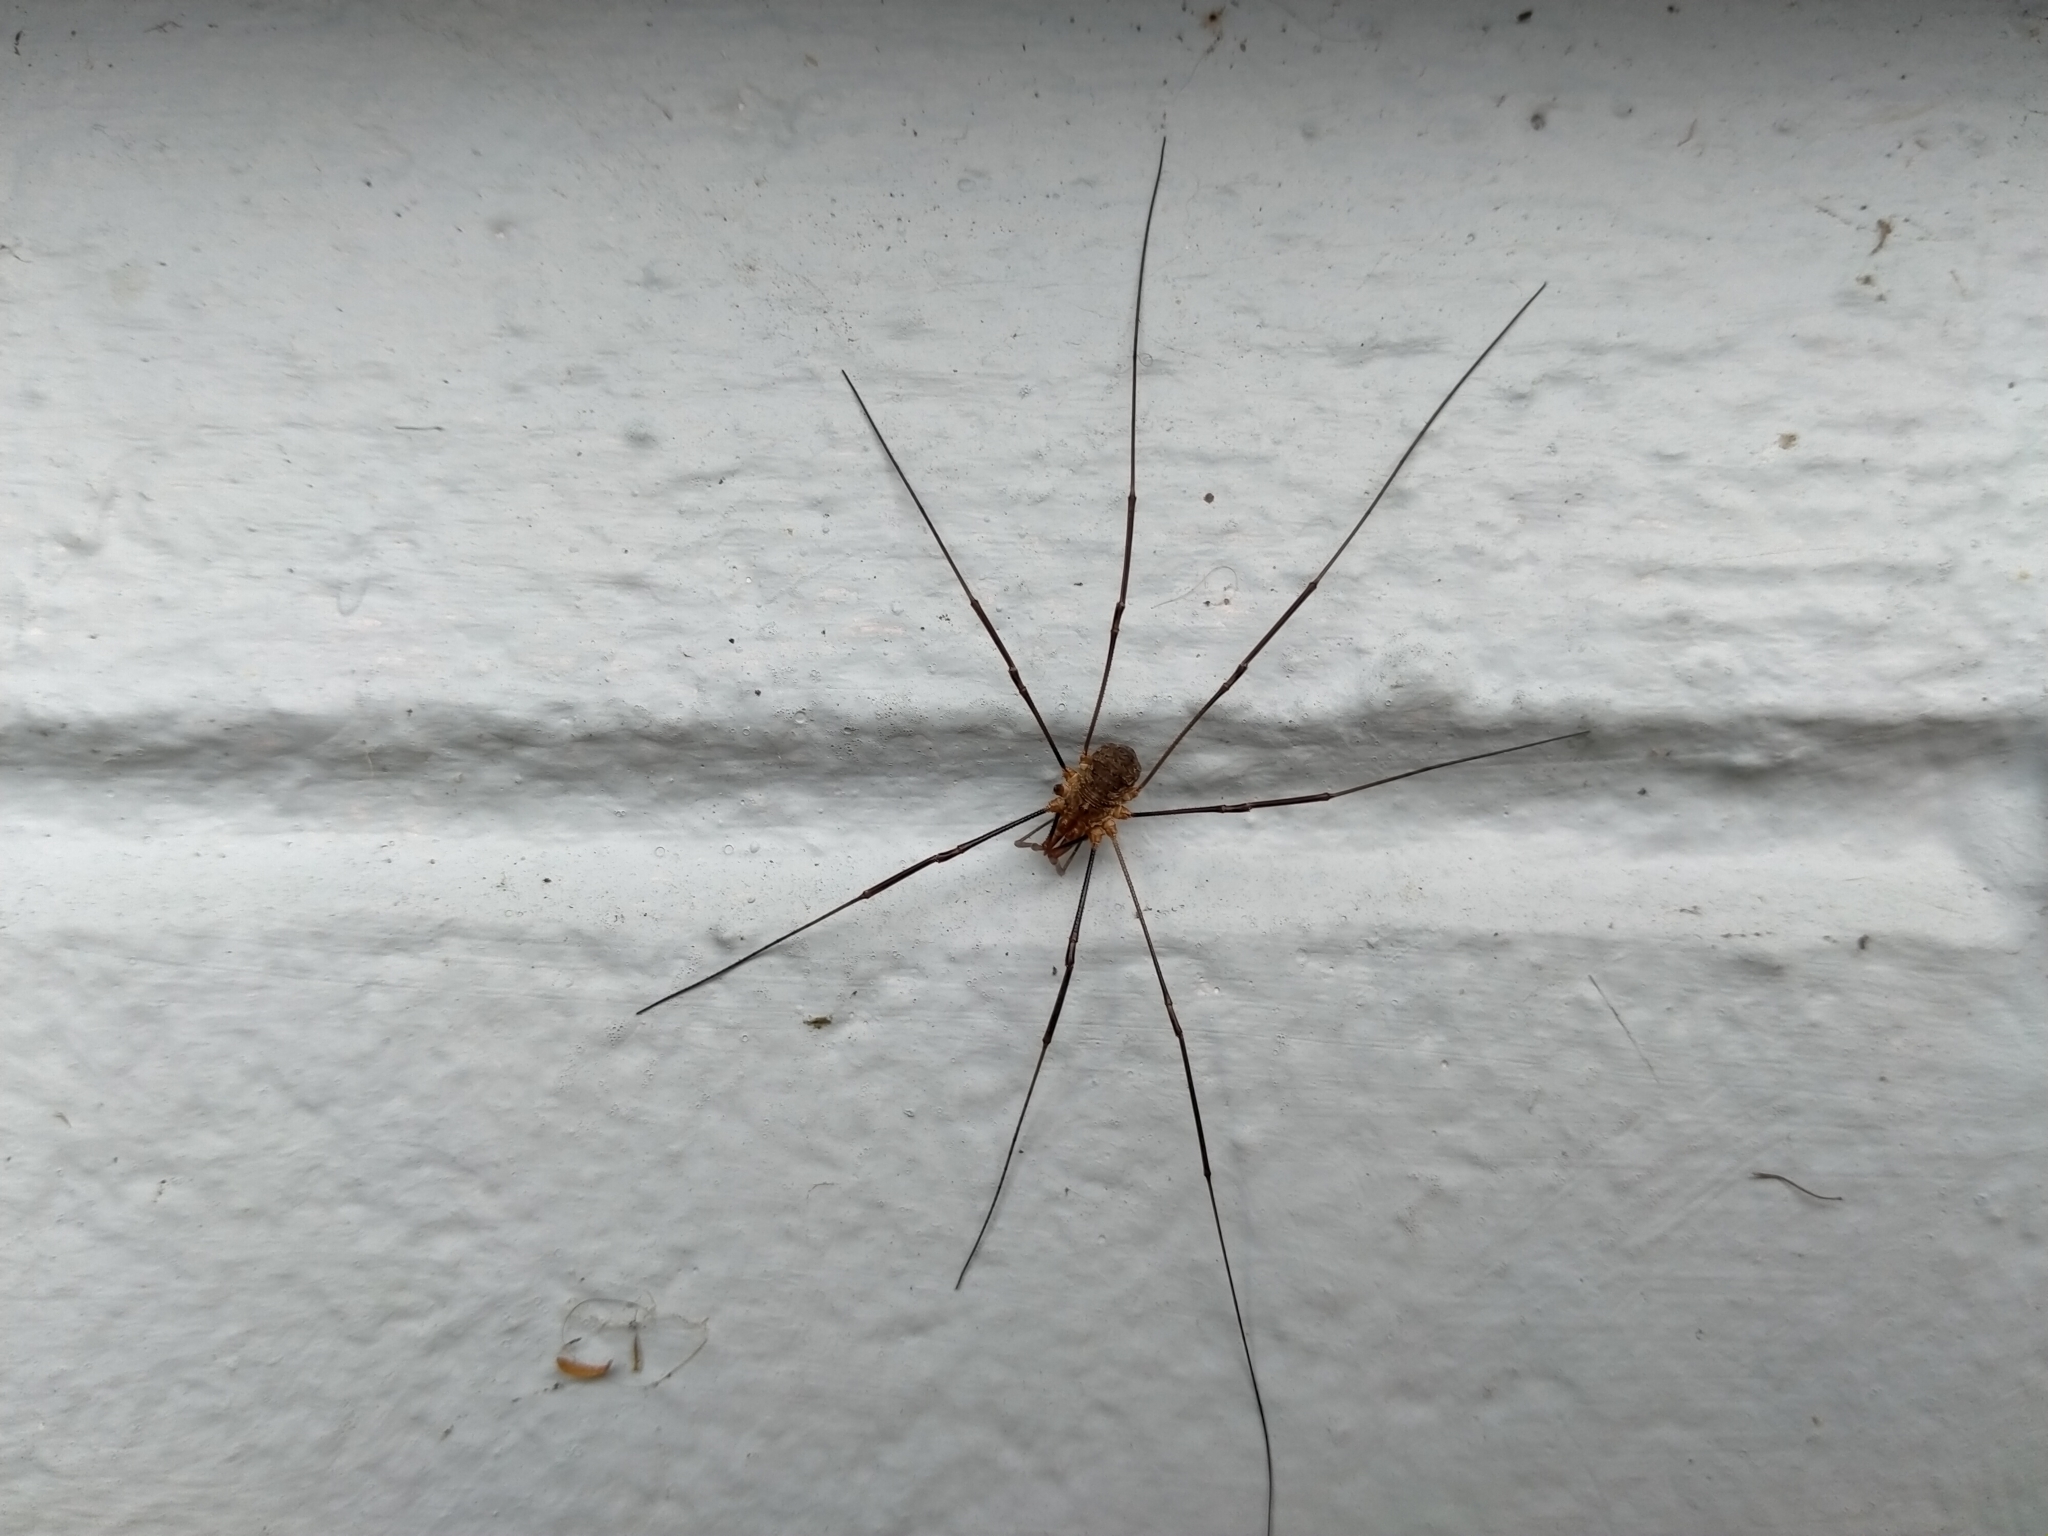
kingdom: Animalia
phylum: Arthropoda
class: Arachnida
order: Opiliones
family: Phalangiidae
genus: Phalangium
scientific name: Phalangium opilio
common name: Daddy longleg
